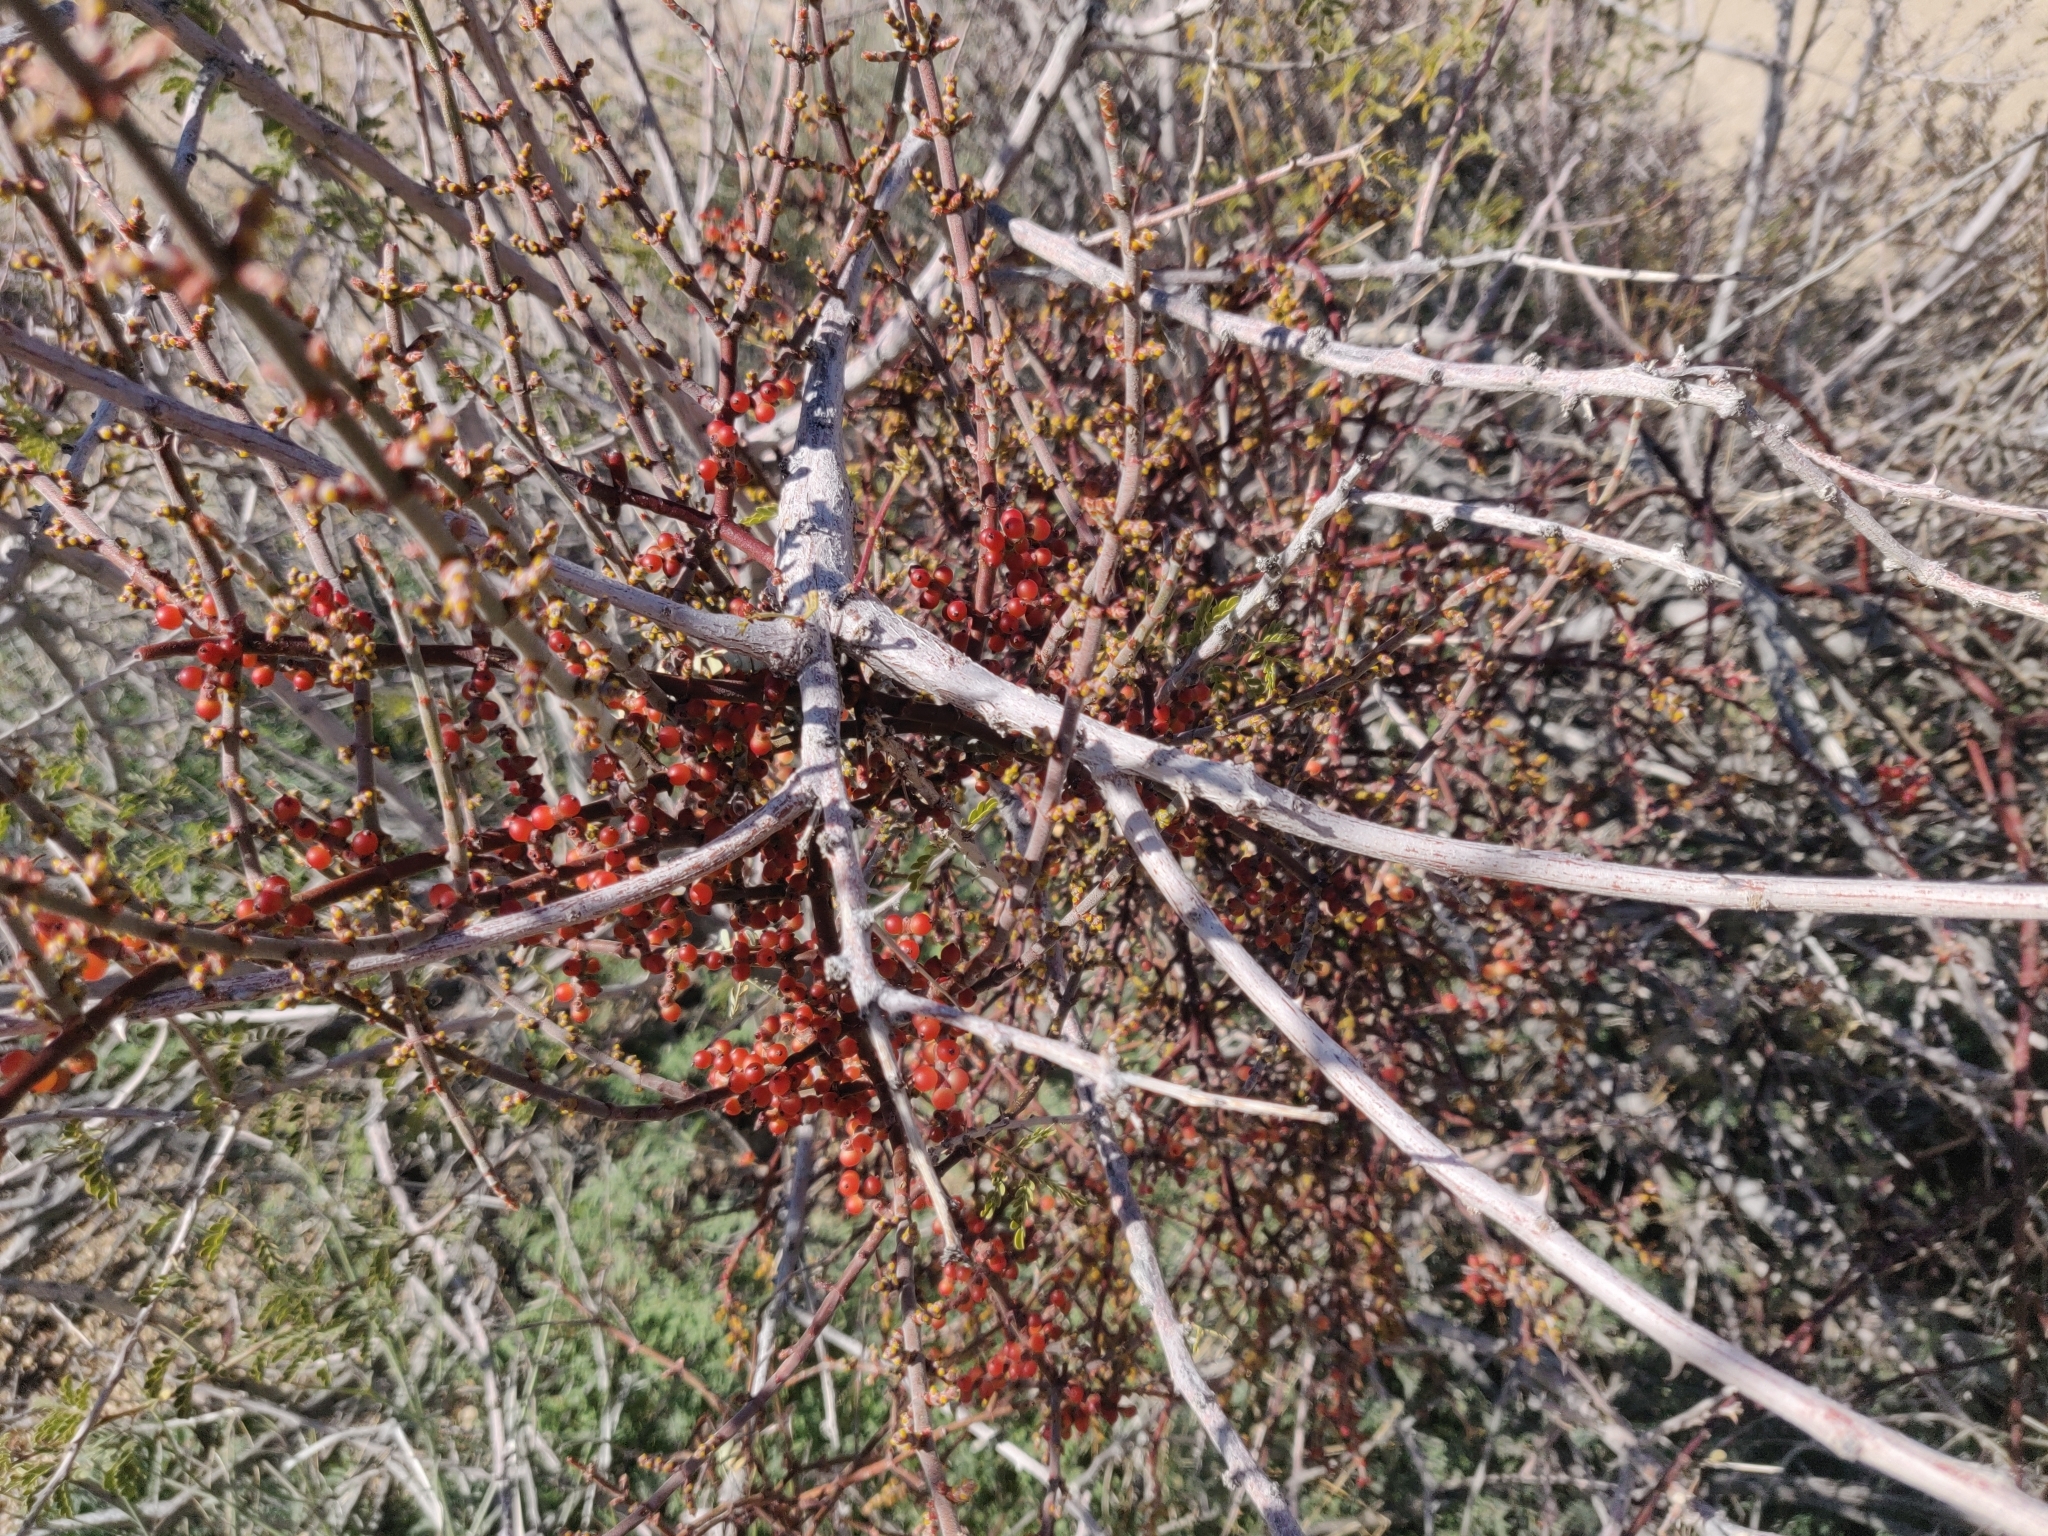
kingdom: Plantae
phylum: Tracheophyta
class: Magnoliopsida
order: Santalales
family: Viscaceae
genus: Phoradendron
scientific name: Phoradendron californicum
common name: Acacia mistletoe
